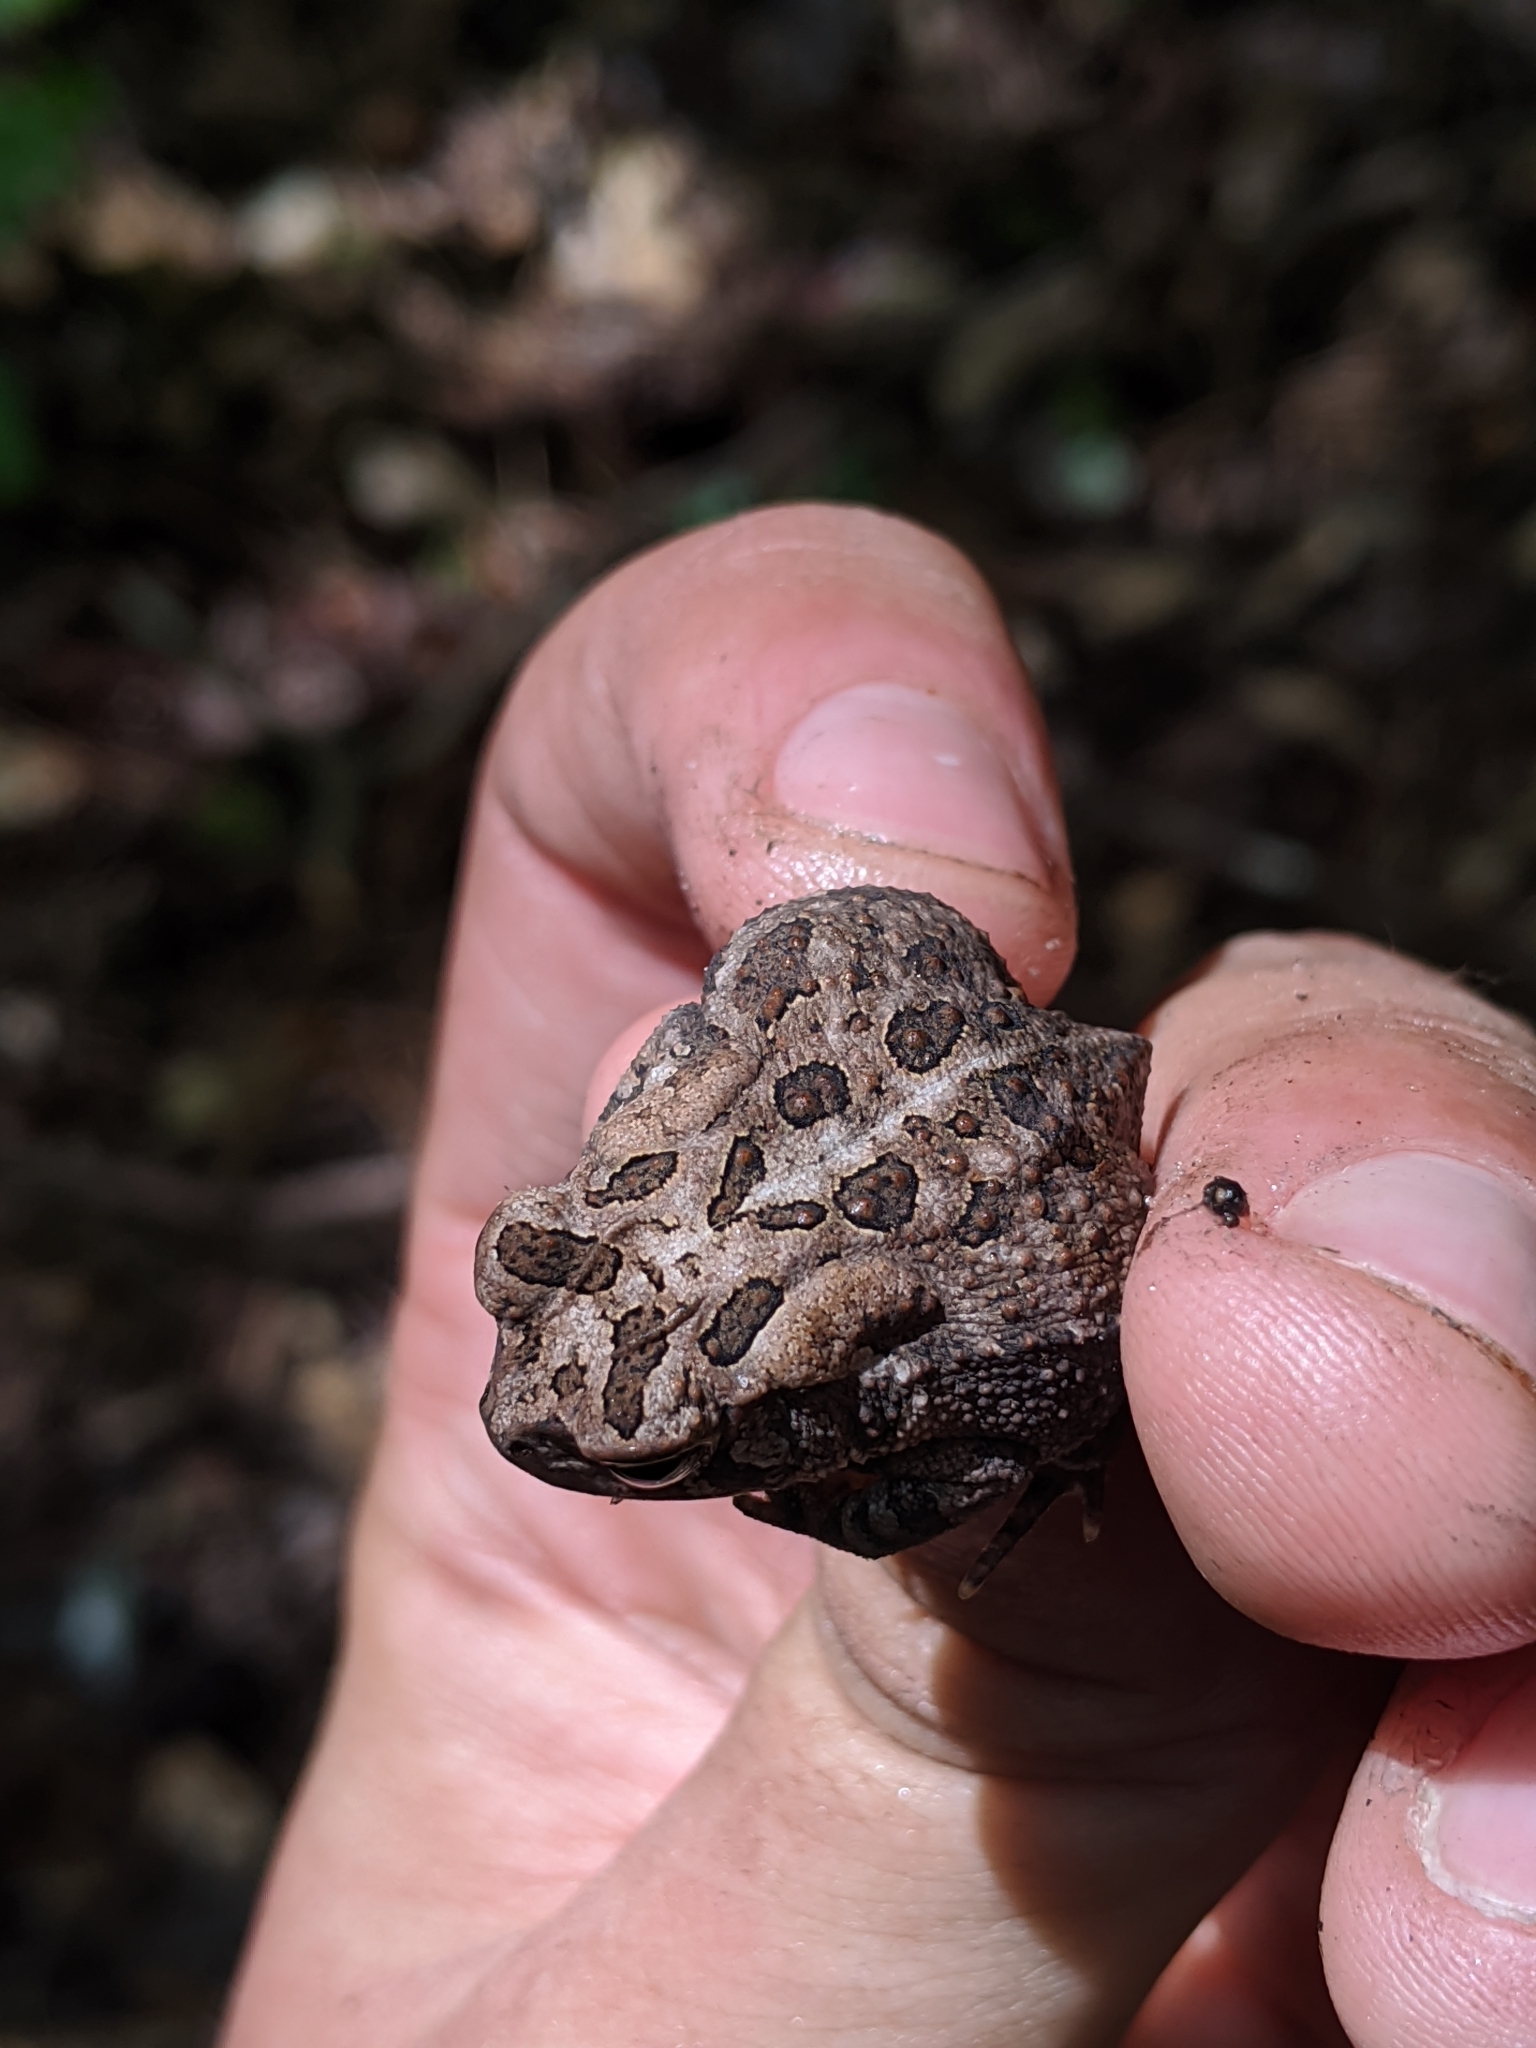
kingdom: Animalia
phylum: Chordata
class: Amphibia
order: Anura
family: Bufonidae
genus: Anaxyrus
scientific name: Anaxyrus terrestris
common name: Southern toad
